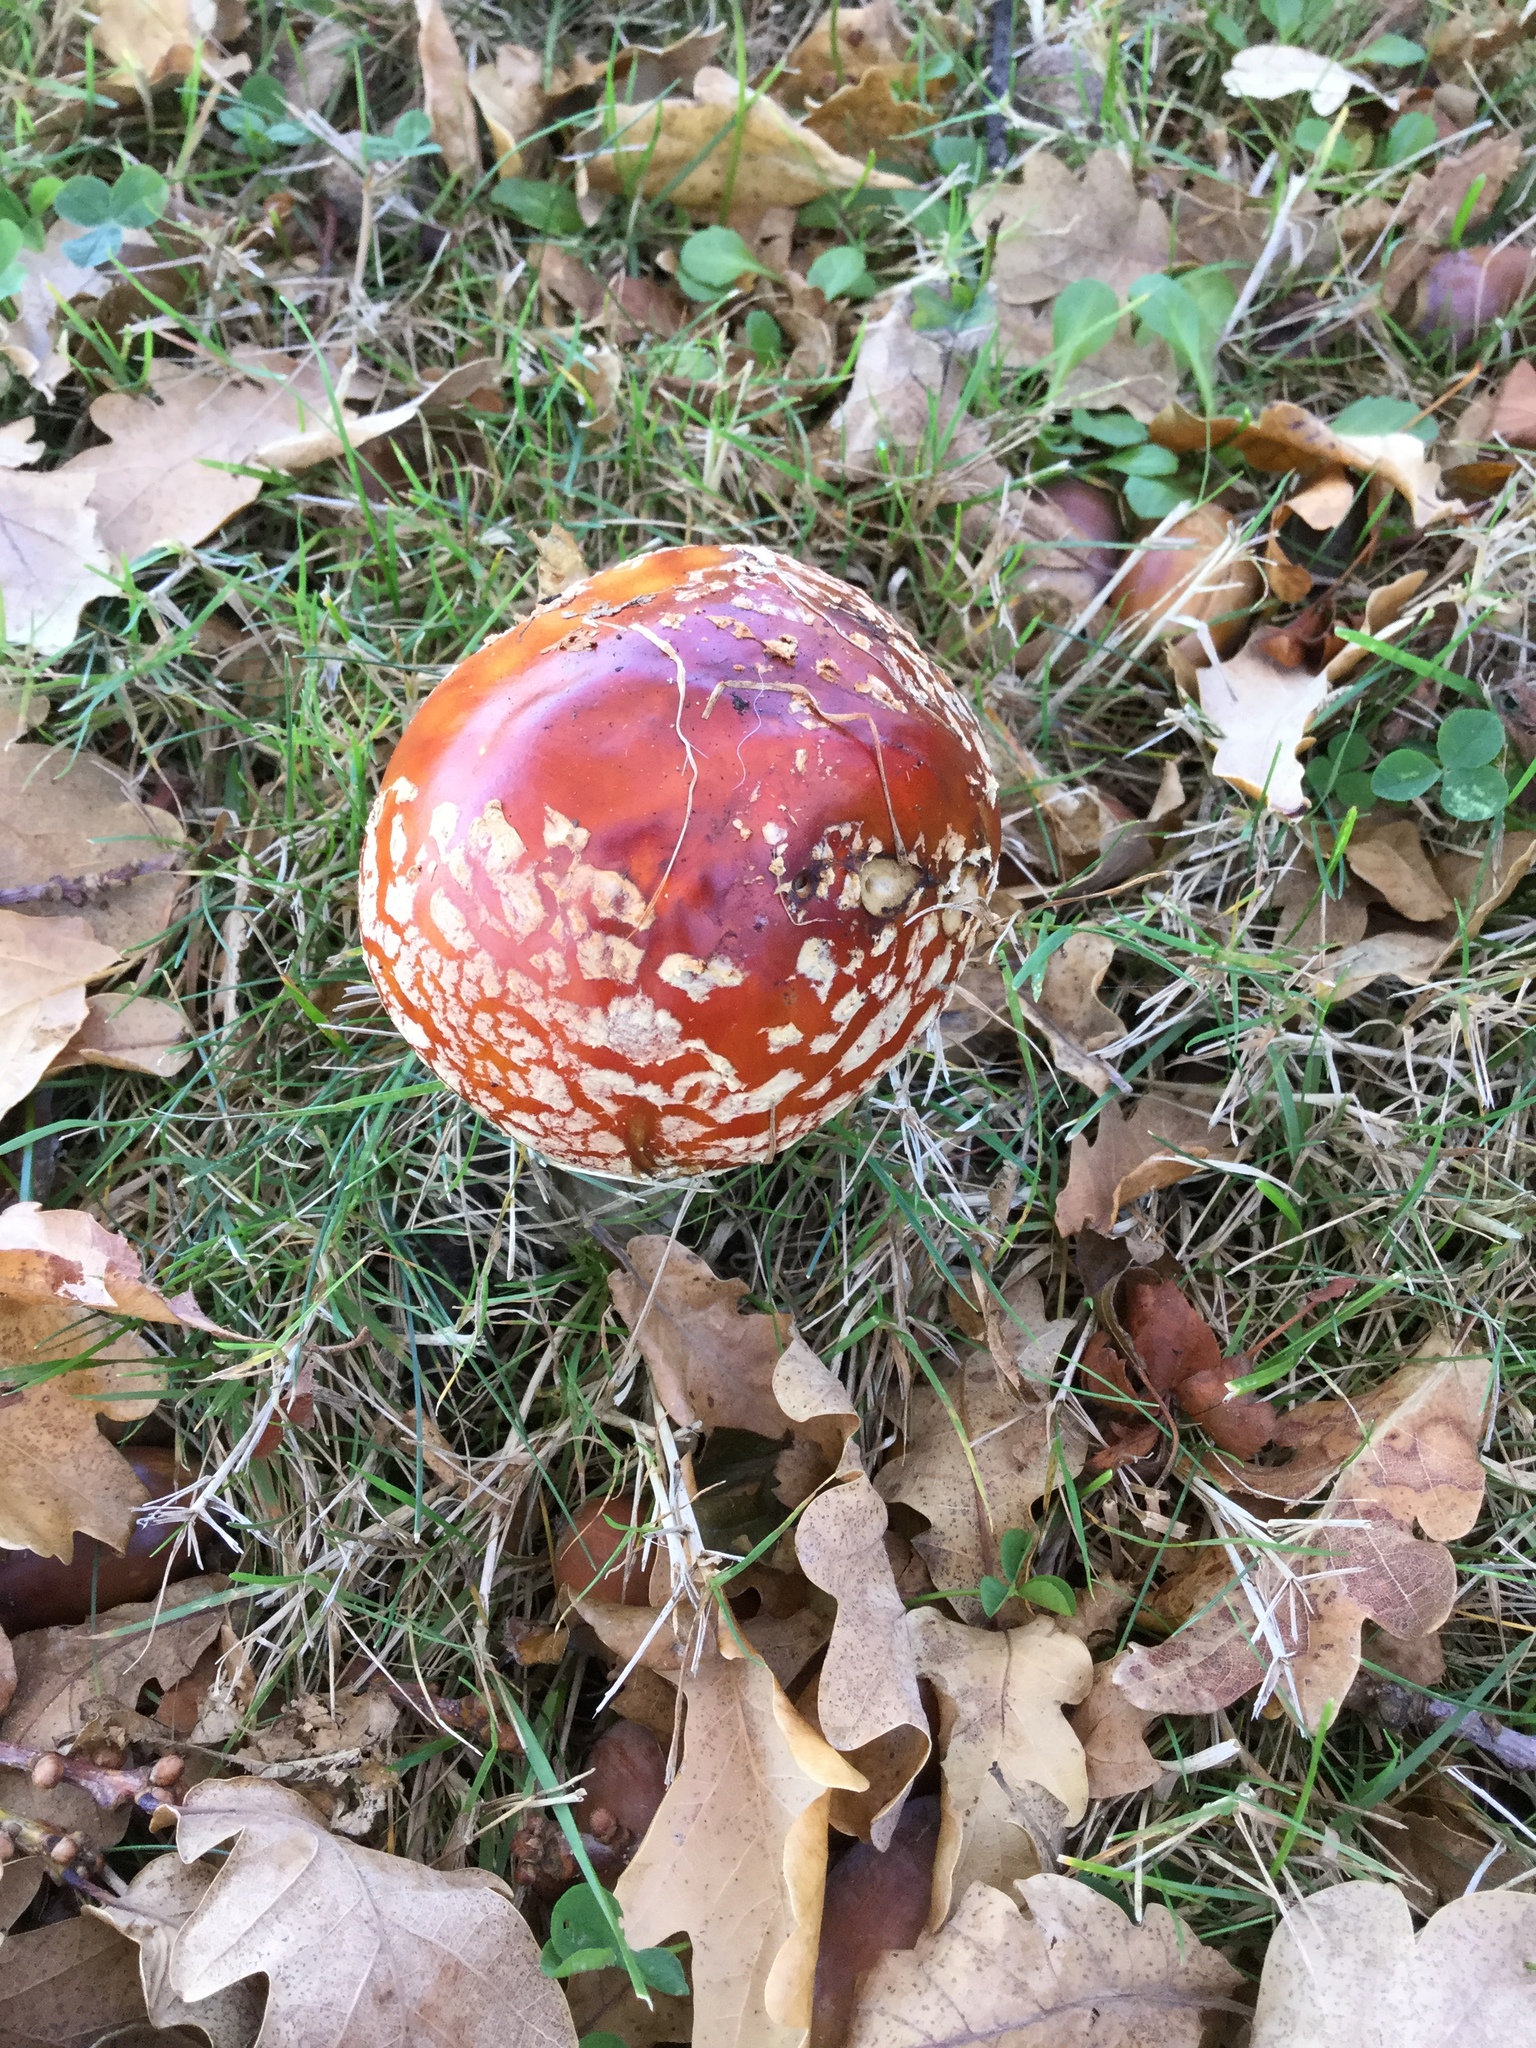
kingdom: Fungi
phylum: Basidiomycota
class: Agaricomycetes
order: Agaricales
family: Amanitaceae
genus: Amanita
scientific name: Amanita muscaria
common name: Fly agaric
